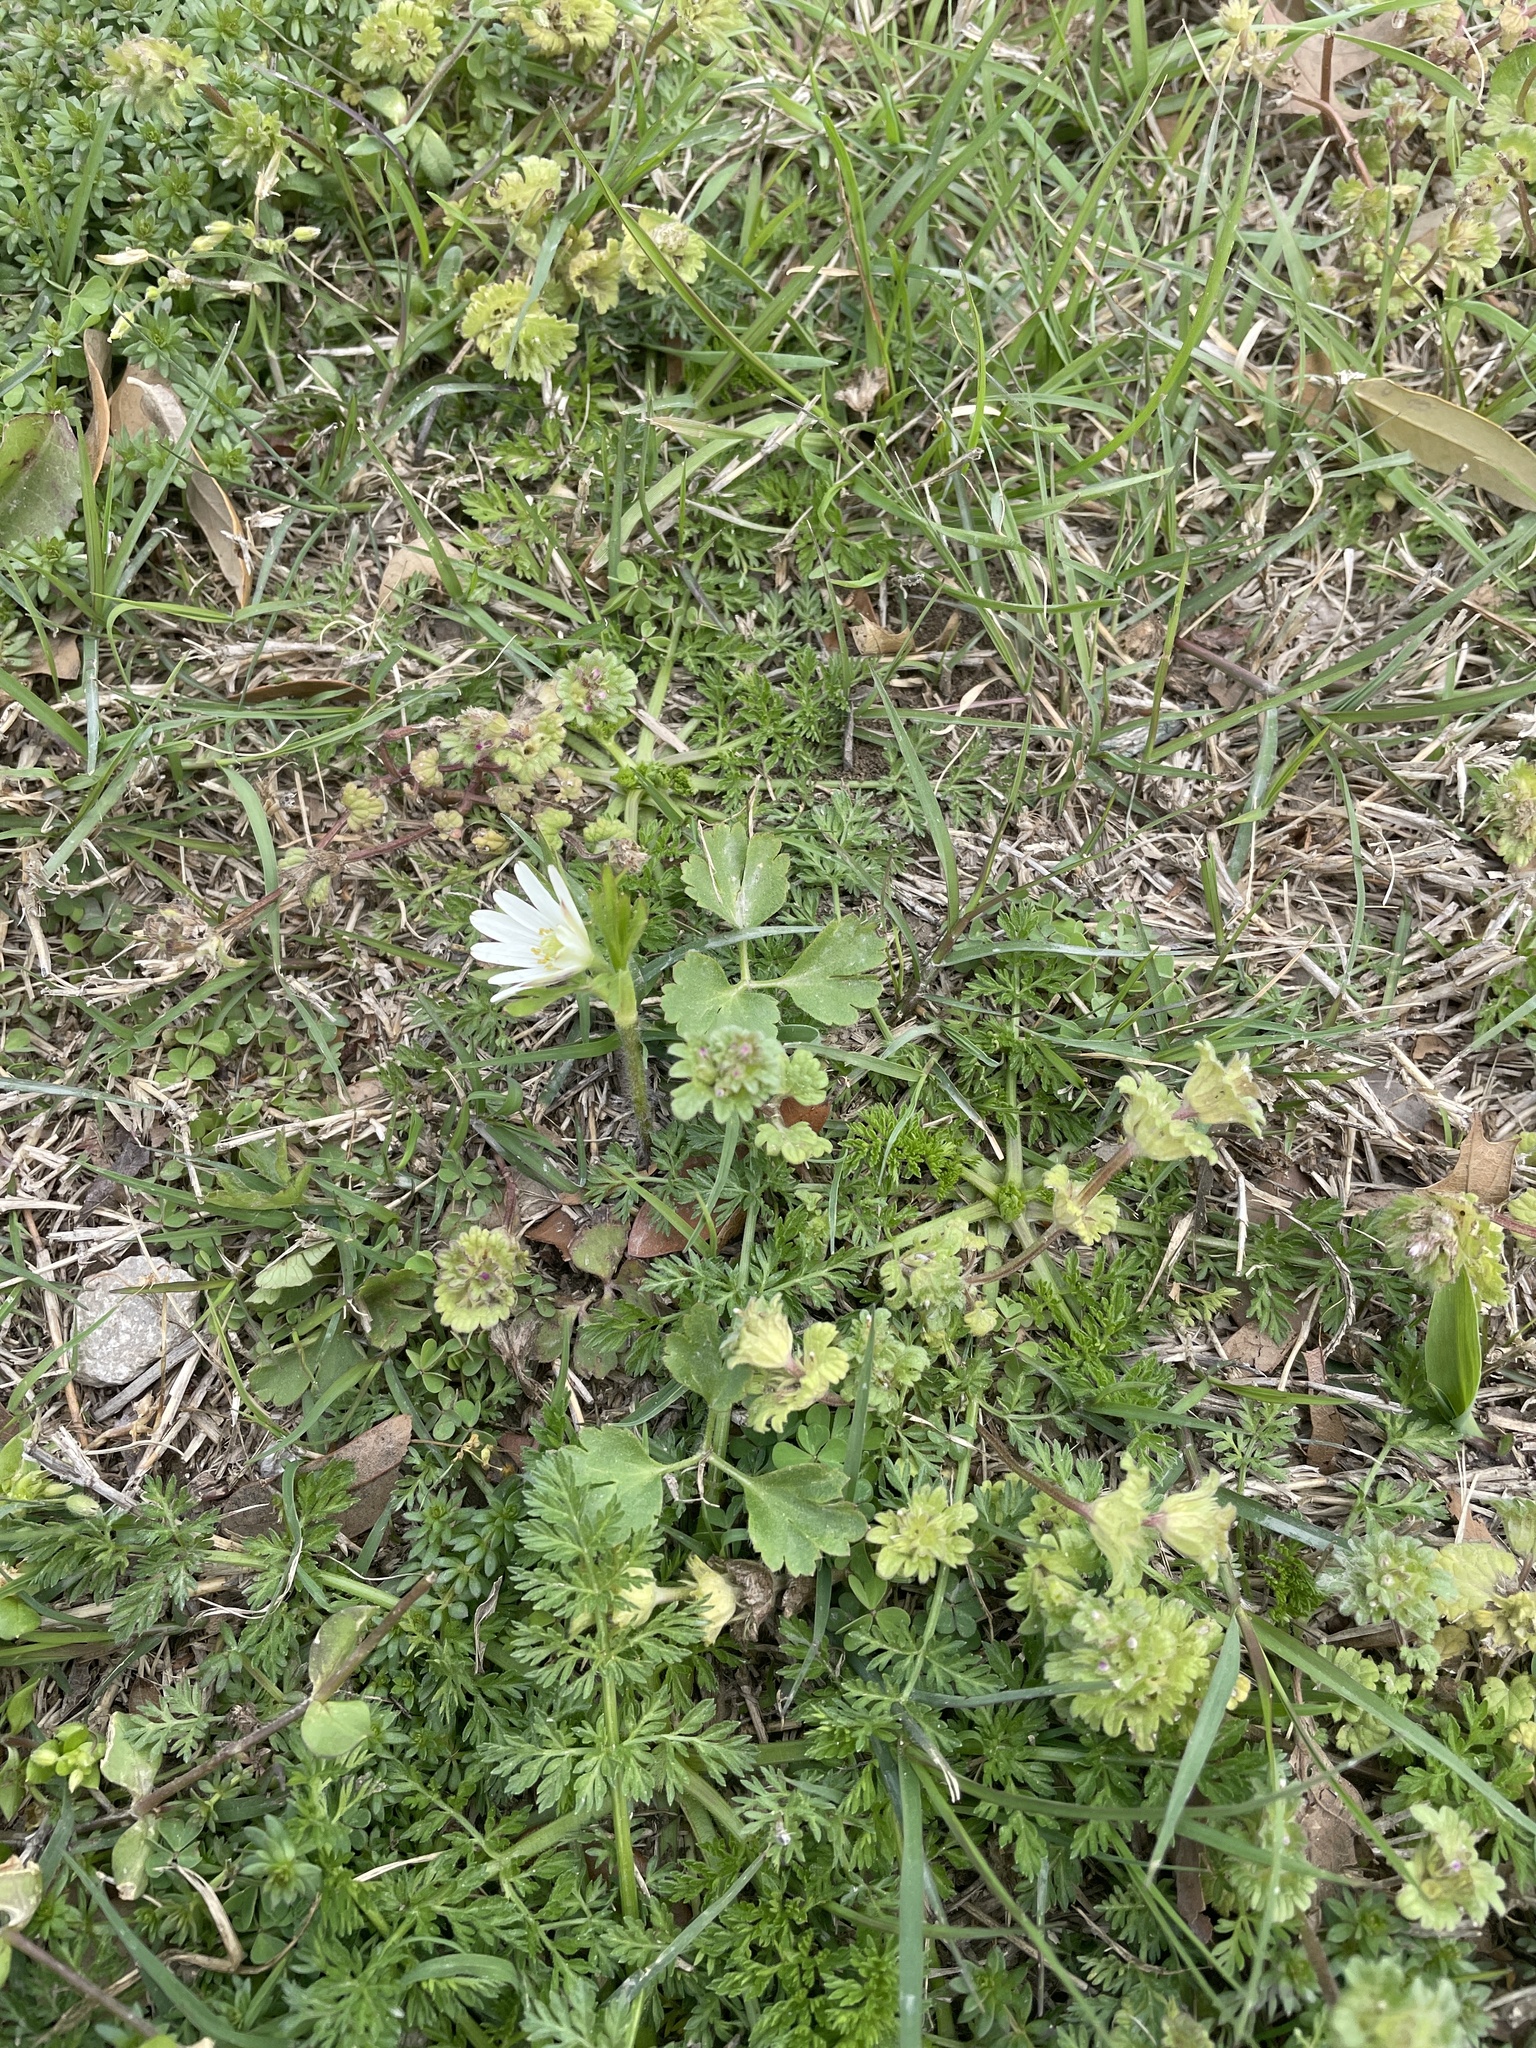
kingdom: Plantae
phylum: Tracheophyta
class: Magnoliopsida
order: Ranunculales
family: Ranunculaceae
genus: Anemone
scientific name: Anemone berlandieri
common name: Ten-petal anemone
